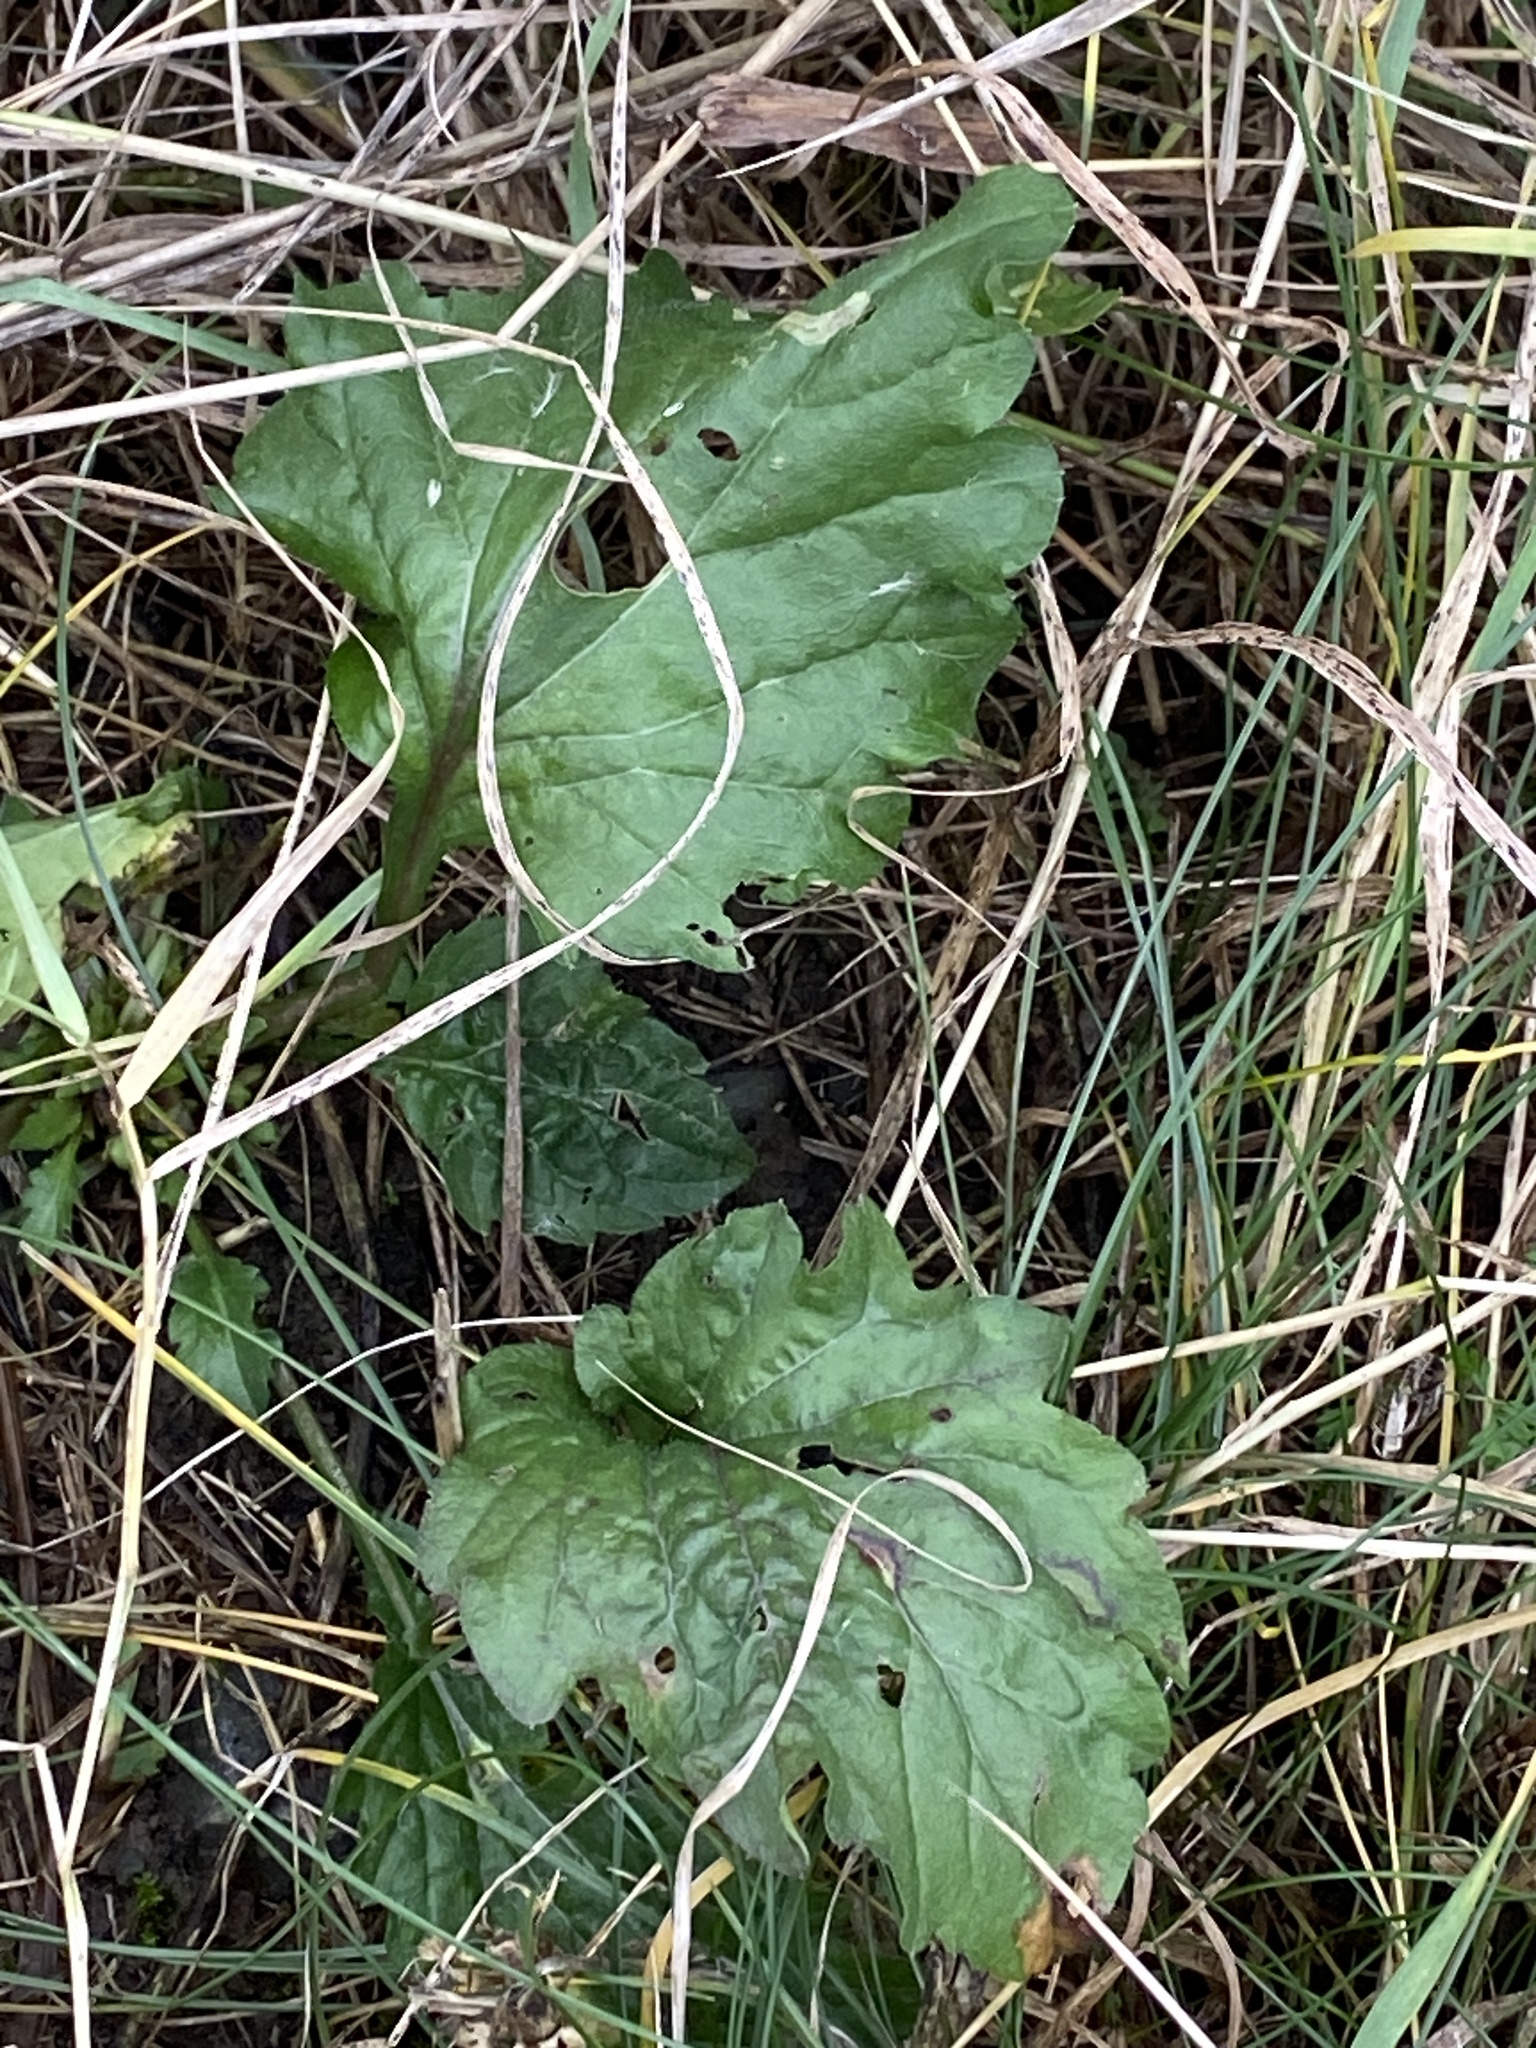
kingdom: Plantae
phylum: Tracheophyta
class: Magnoliopsida
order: Asterales
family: Asteraceae
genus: Erigeron
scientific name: Erigeron annuus
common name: Tall fleabane
